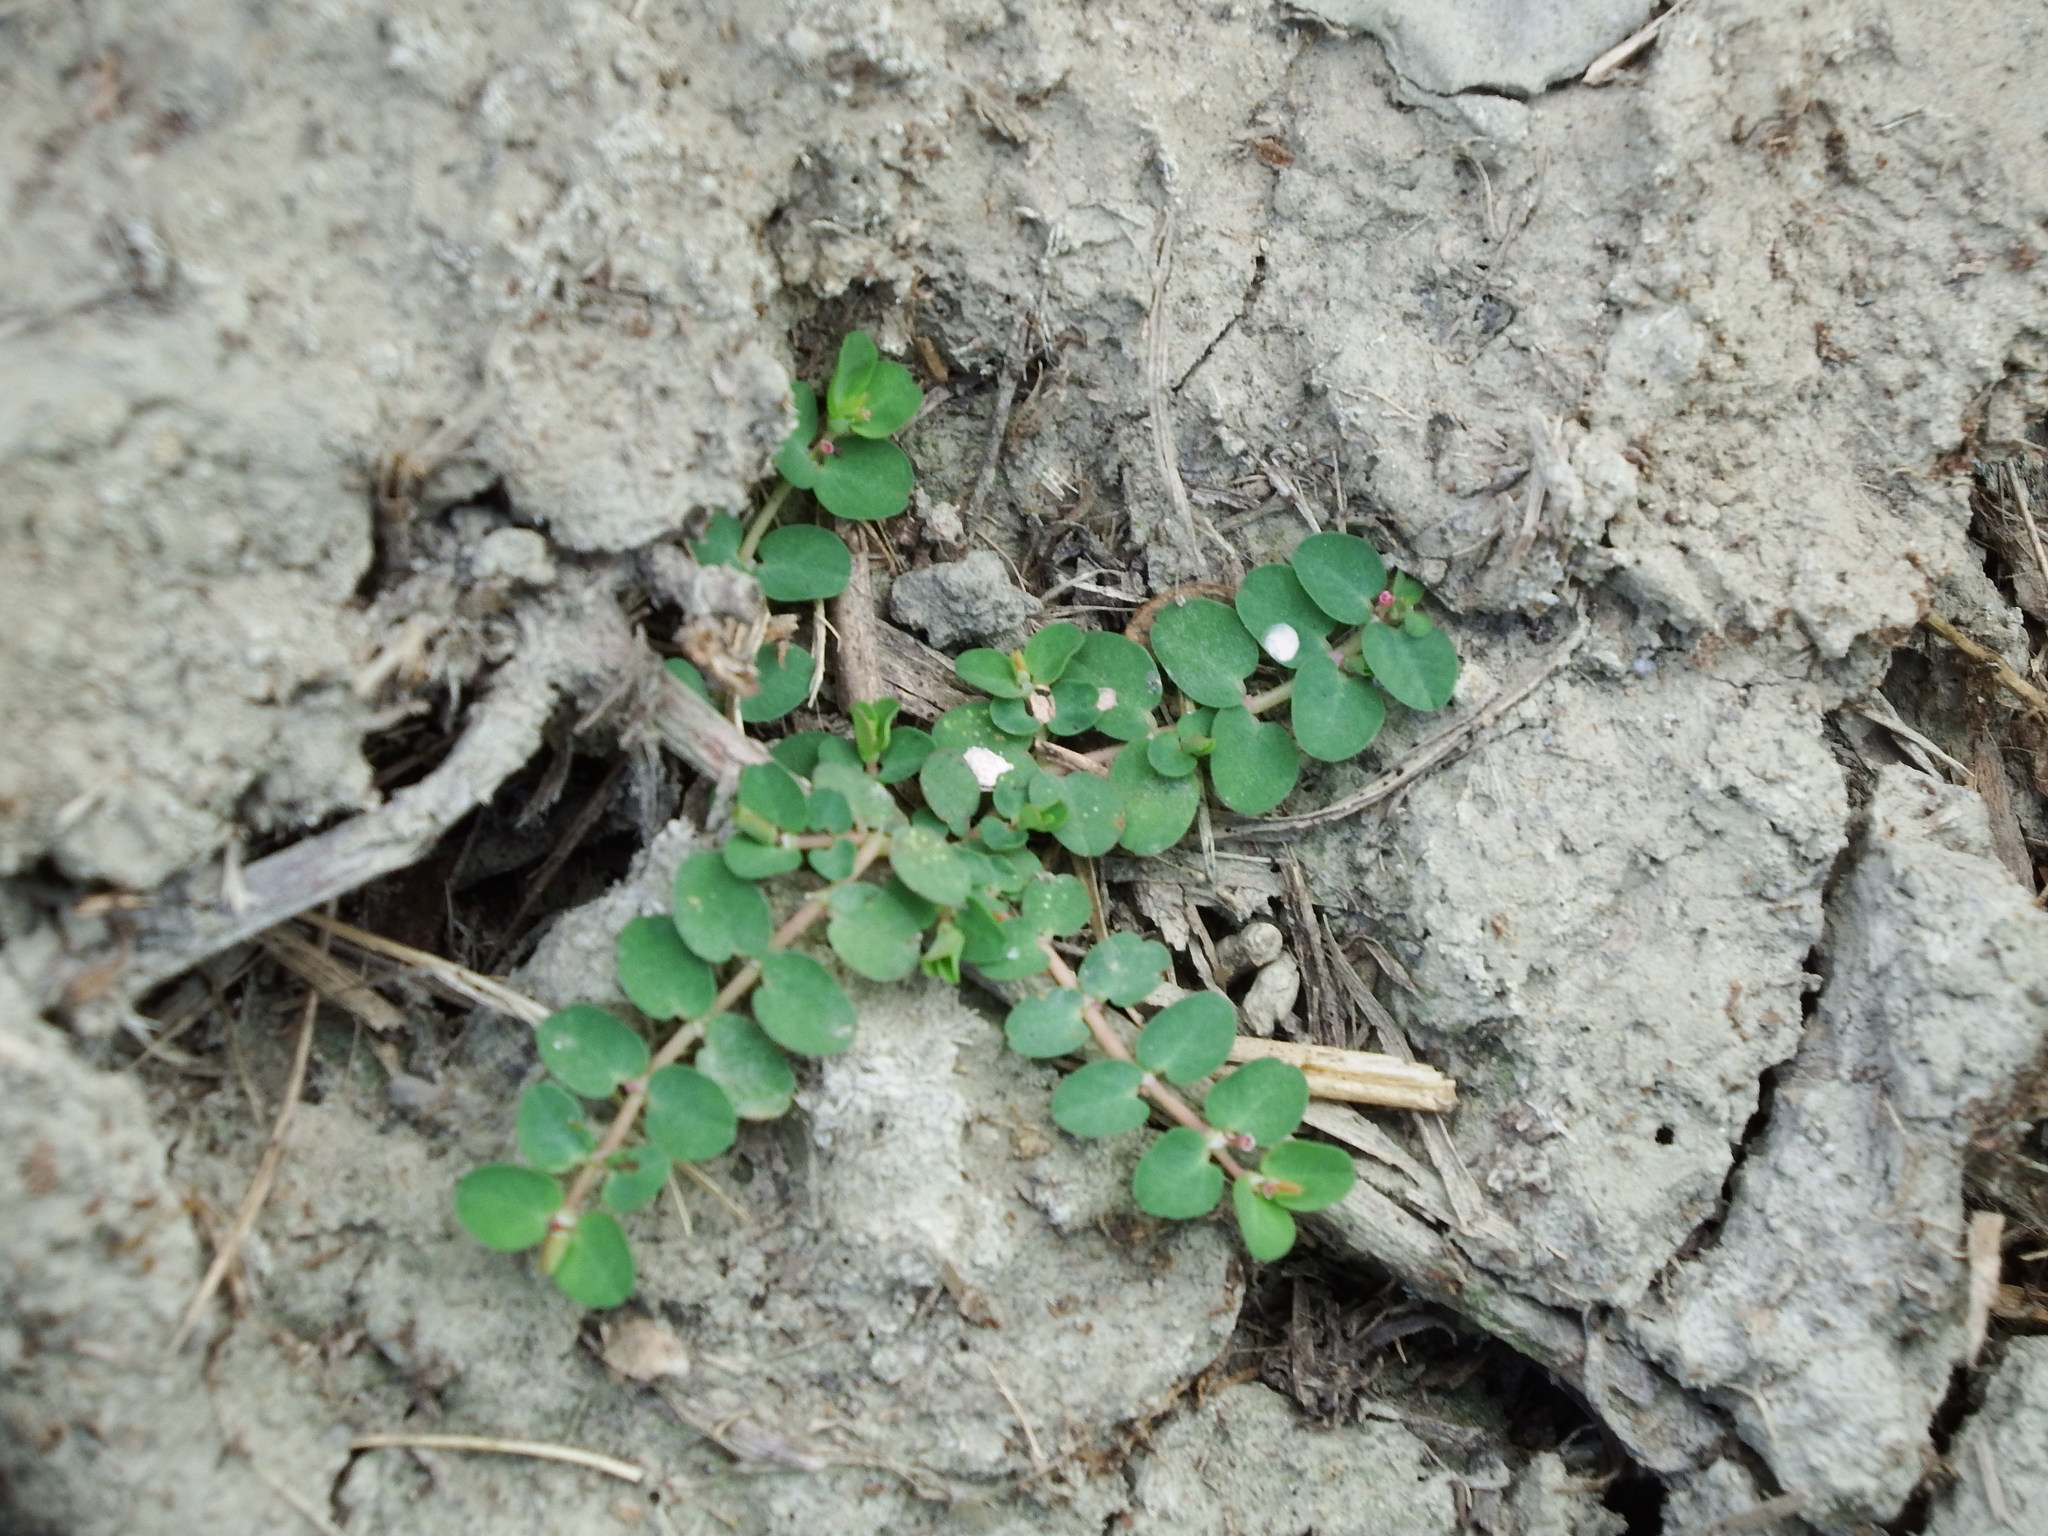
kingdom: Plantae
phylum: Tracheophyta
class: Magnoliopsida
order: Malpighiales
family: Euphorbiaceae
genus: Euphorbia
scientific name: Euphorbia serpens
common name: Matted sandmat
